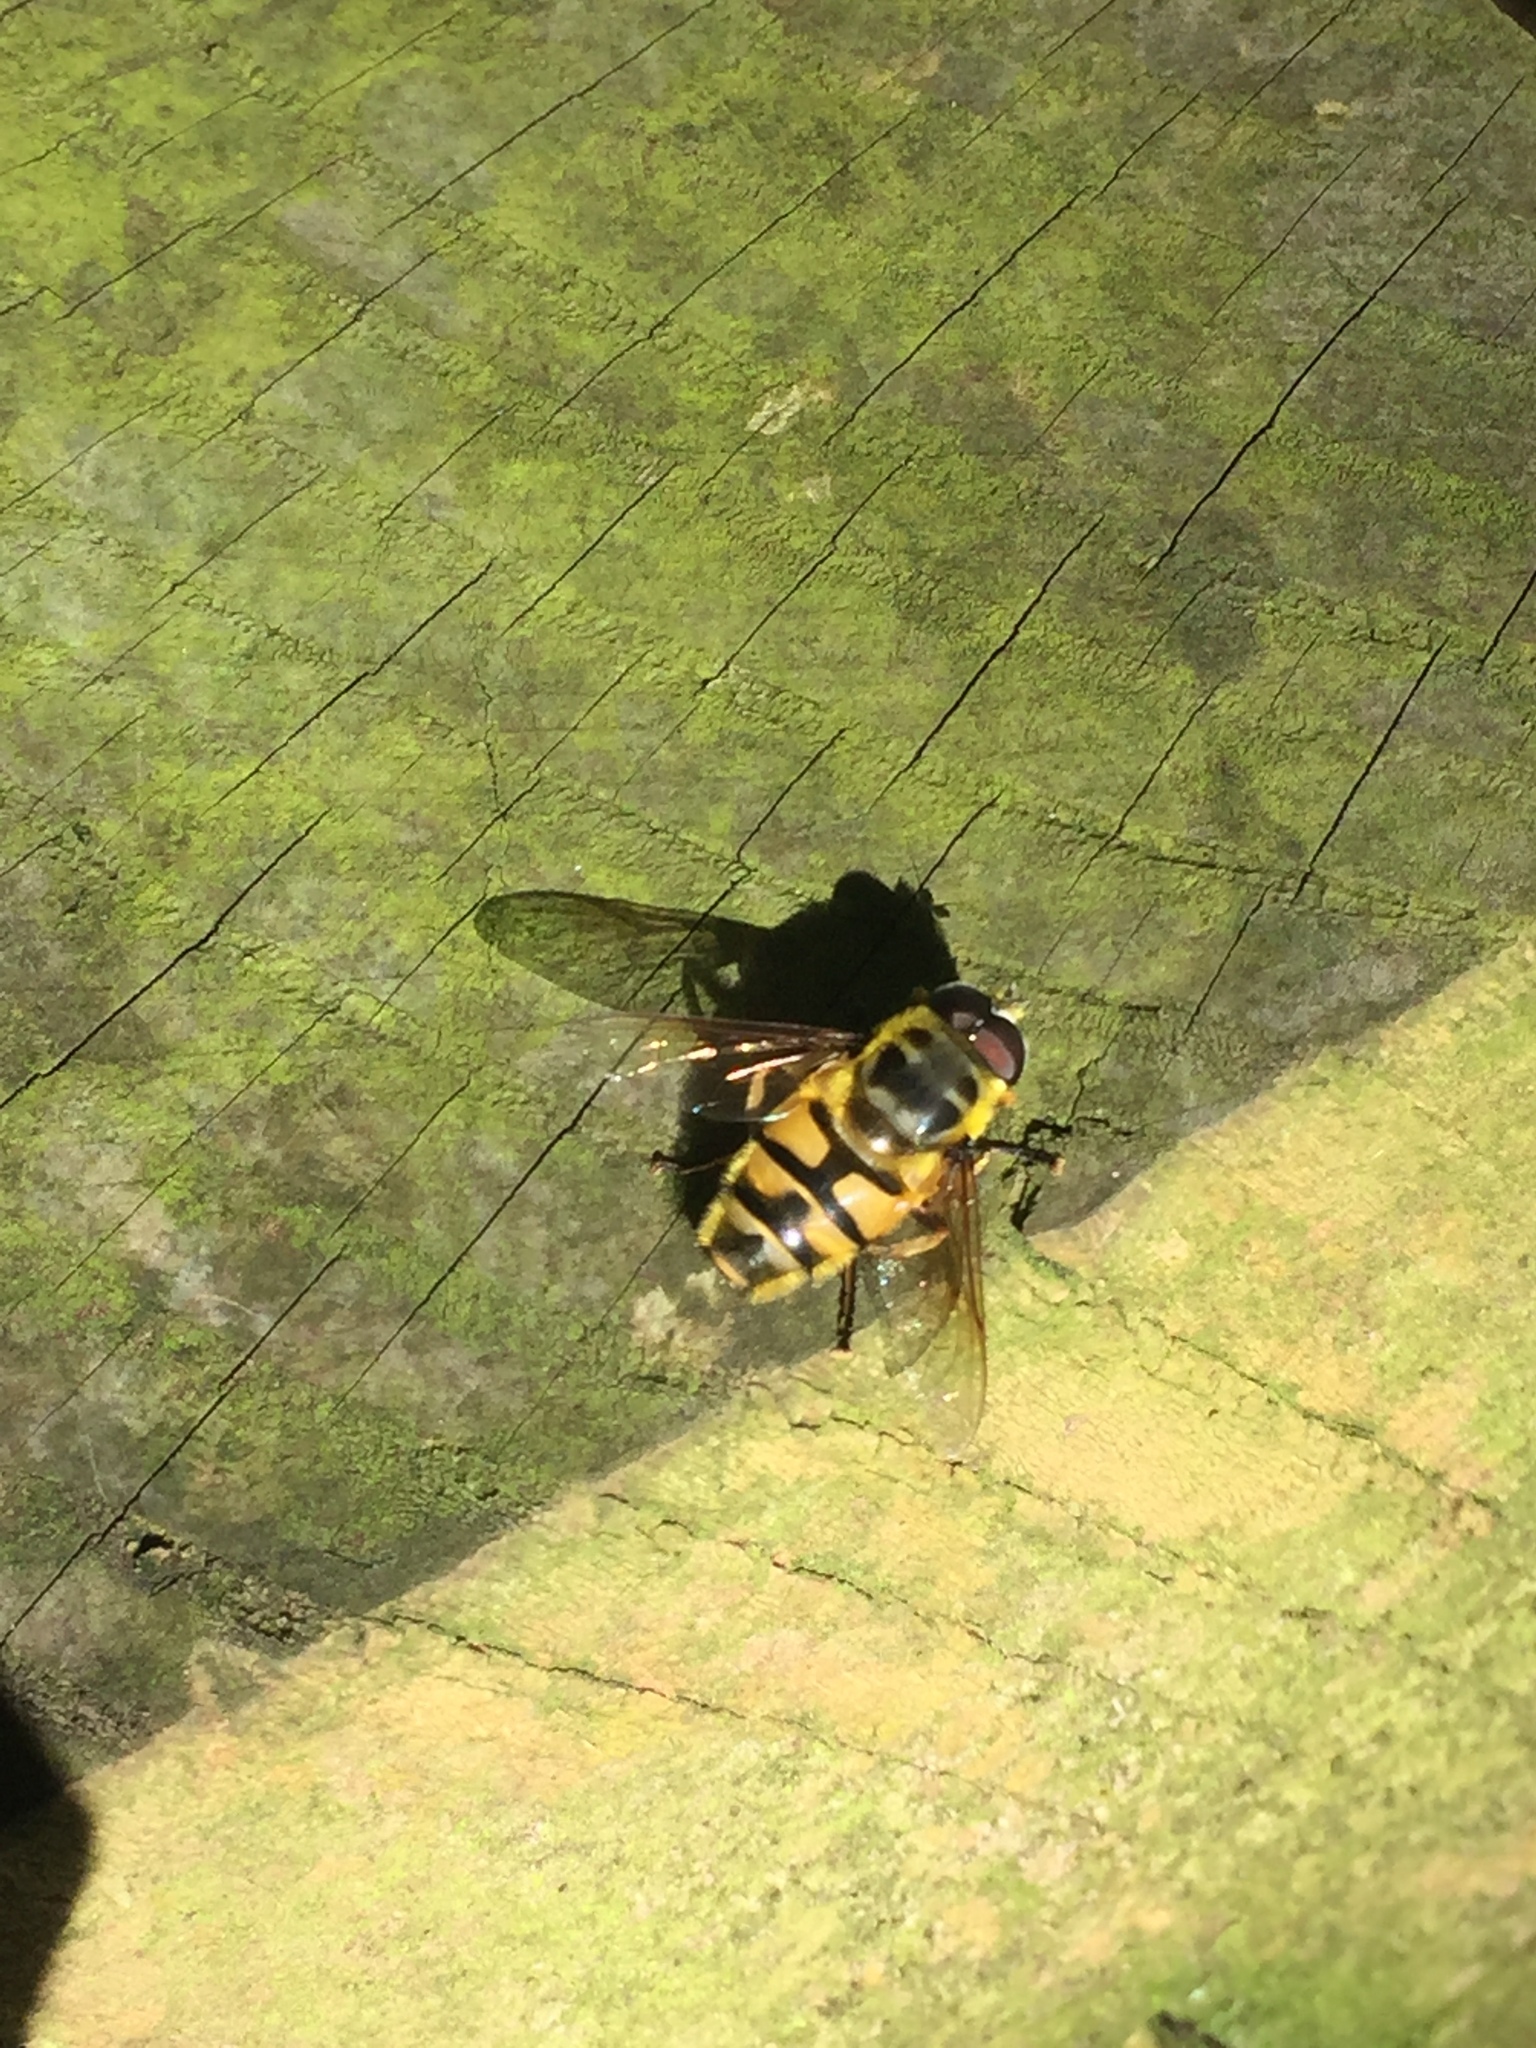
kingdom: Animalia
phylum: Arthropoda
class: Insecta
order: Diptera
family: Syrphidae
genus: Myathropa
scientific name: Myathropa florea
